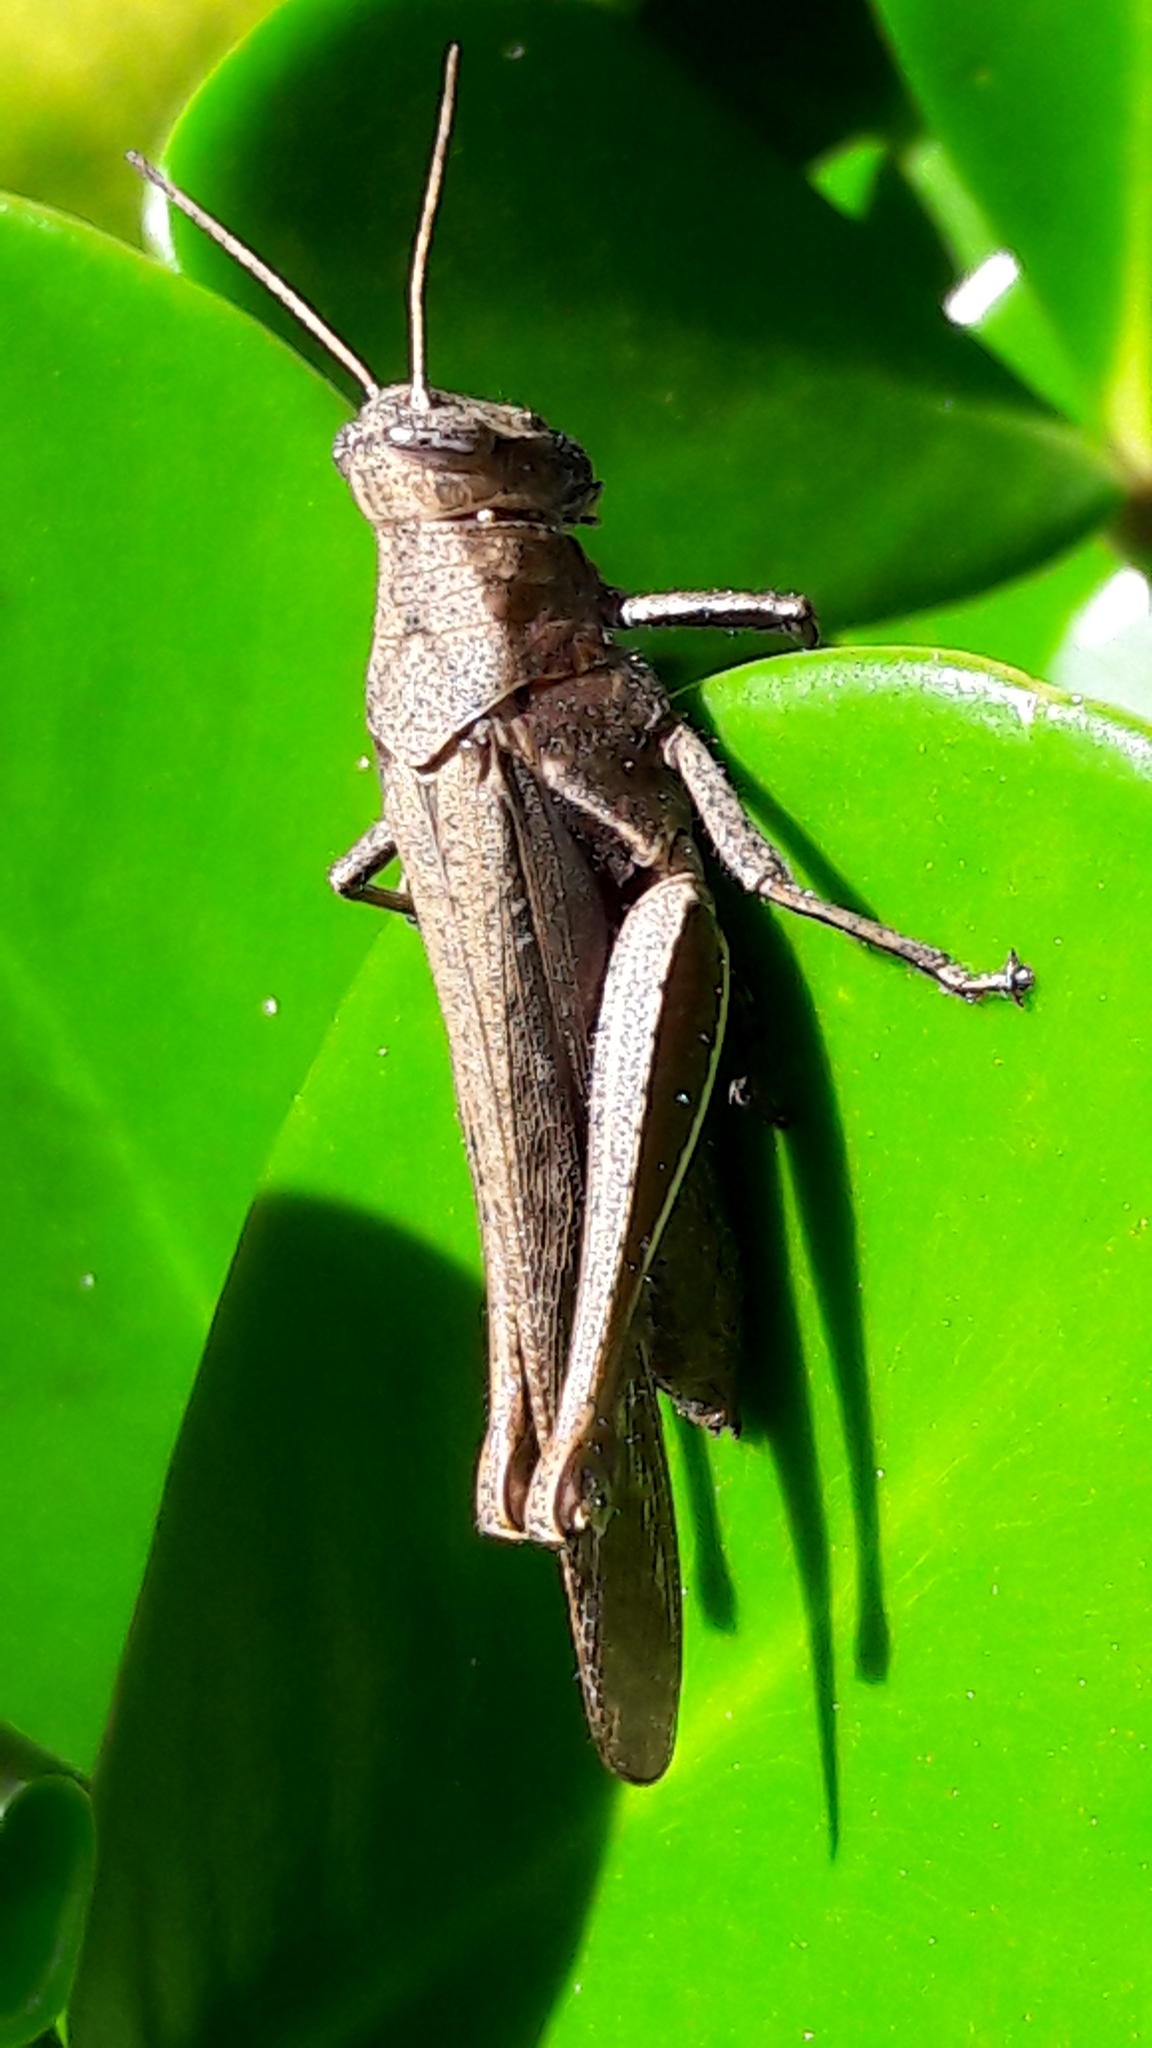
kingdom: Animalia
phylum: Arthropoda
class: Insecta
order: Orthoptera
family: Acrididae
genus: Abracris
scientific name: Abracris flavolineata
